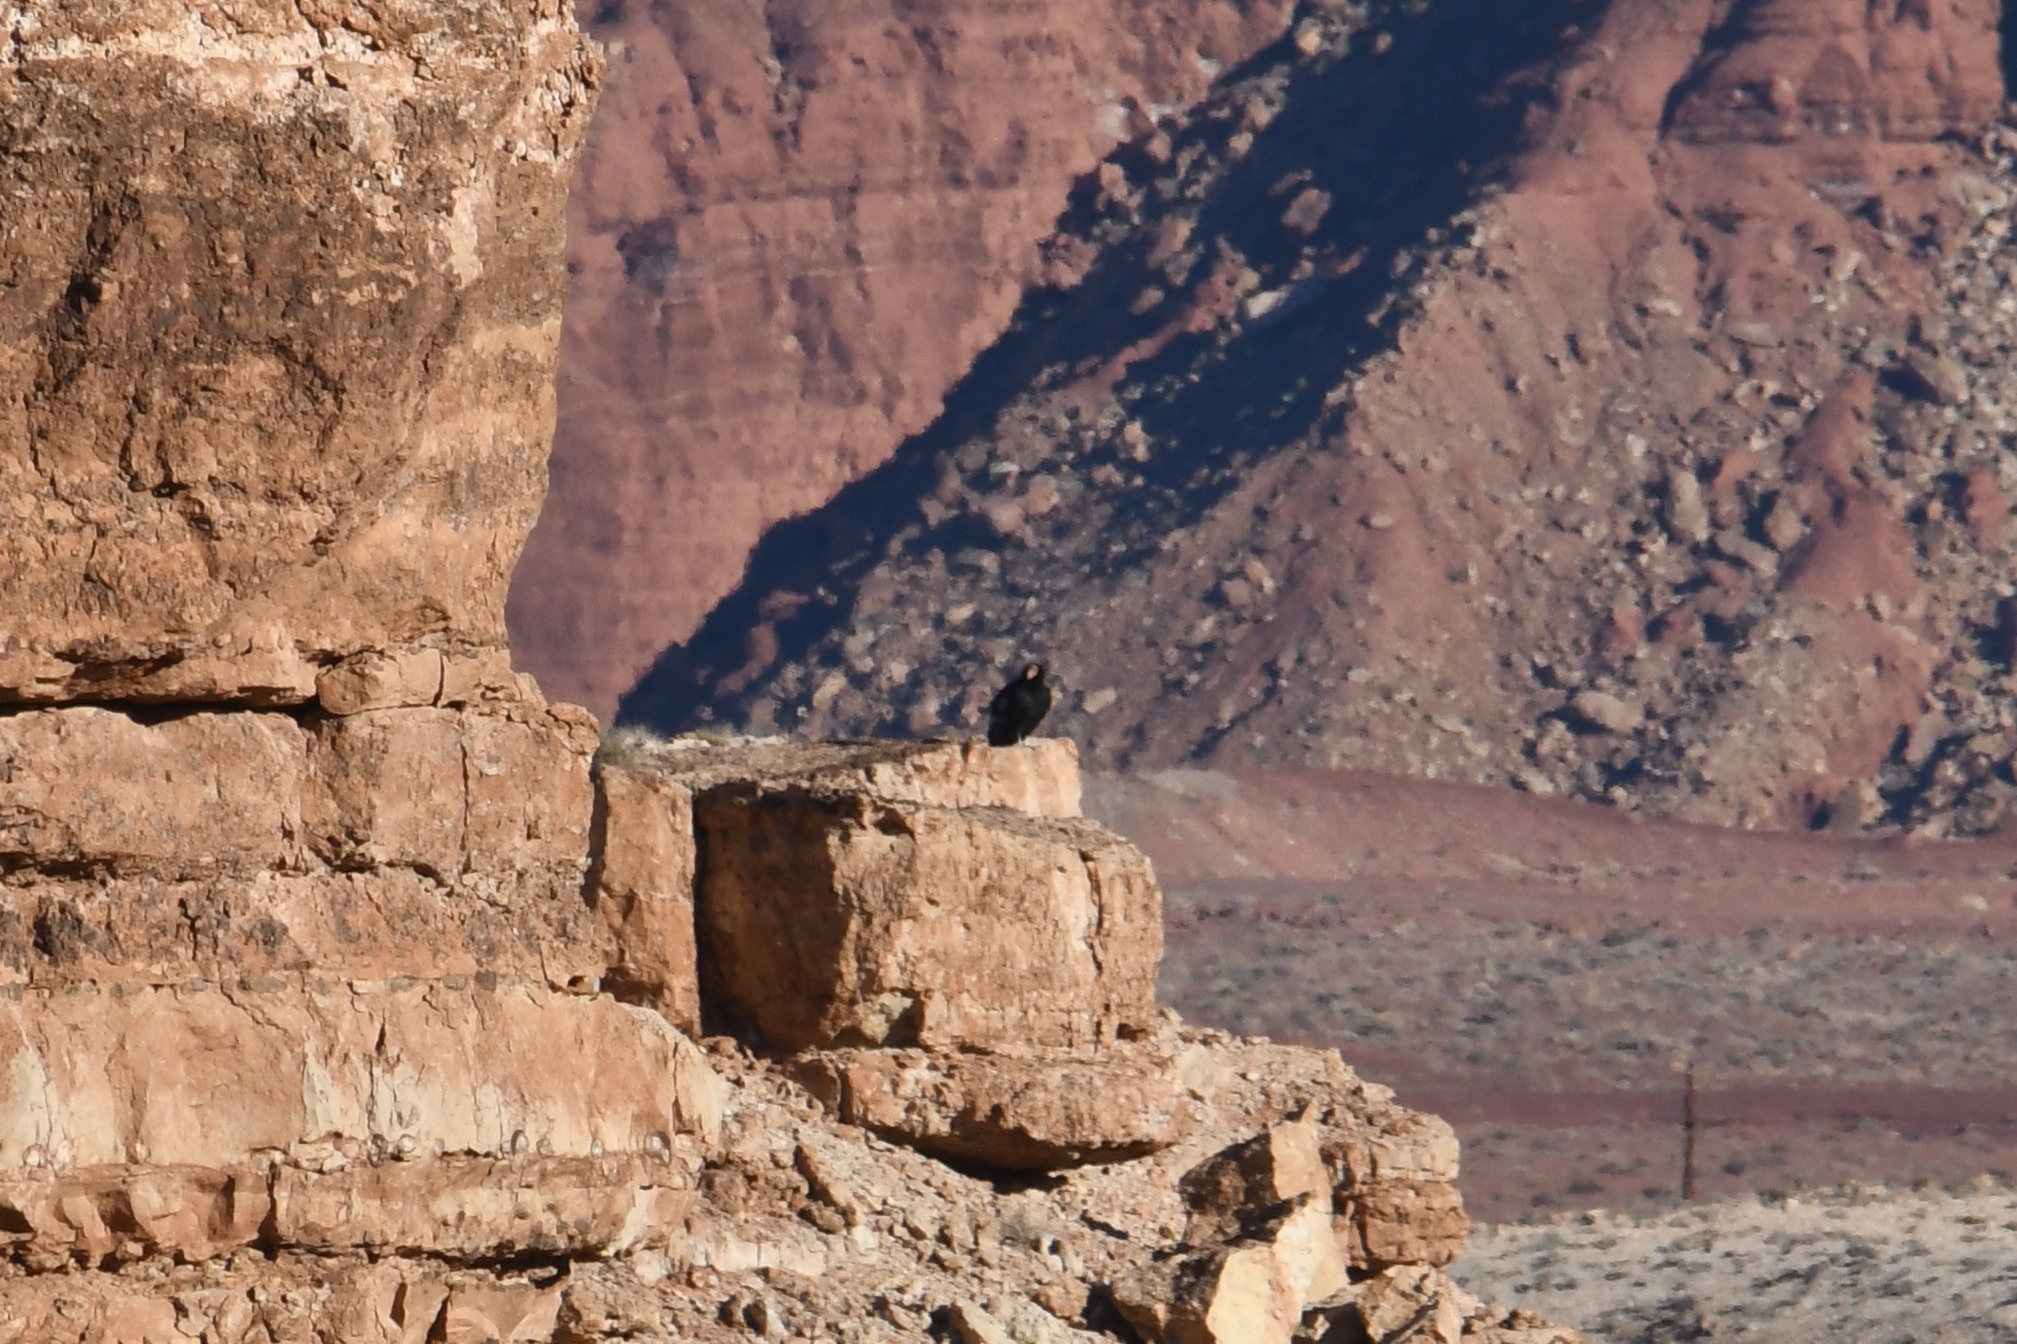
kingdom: Animalia
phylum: Chordata
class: Aves
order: Accipitriformes
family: Cathartidae
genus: Gymnogyps
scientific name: Gymnogyps californianus
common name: California condor
